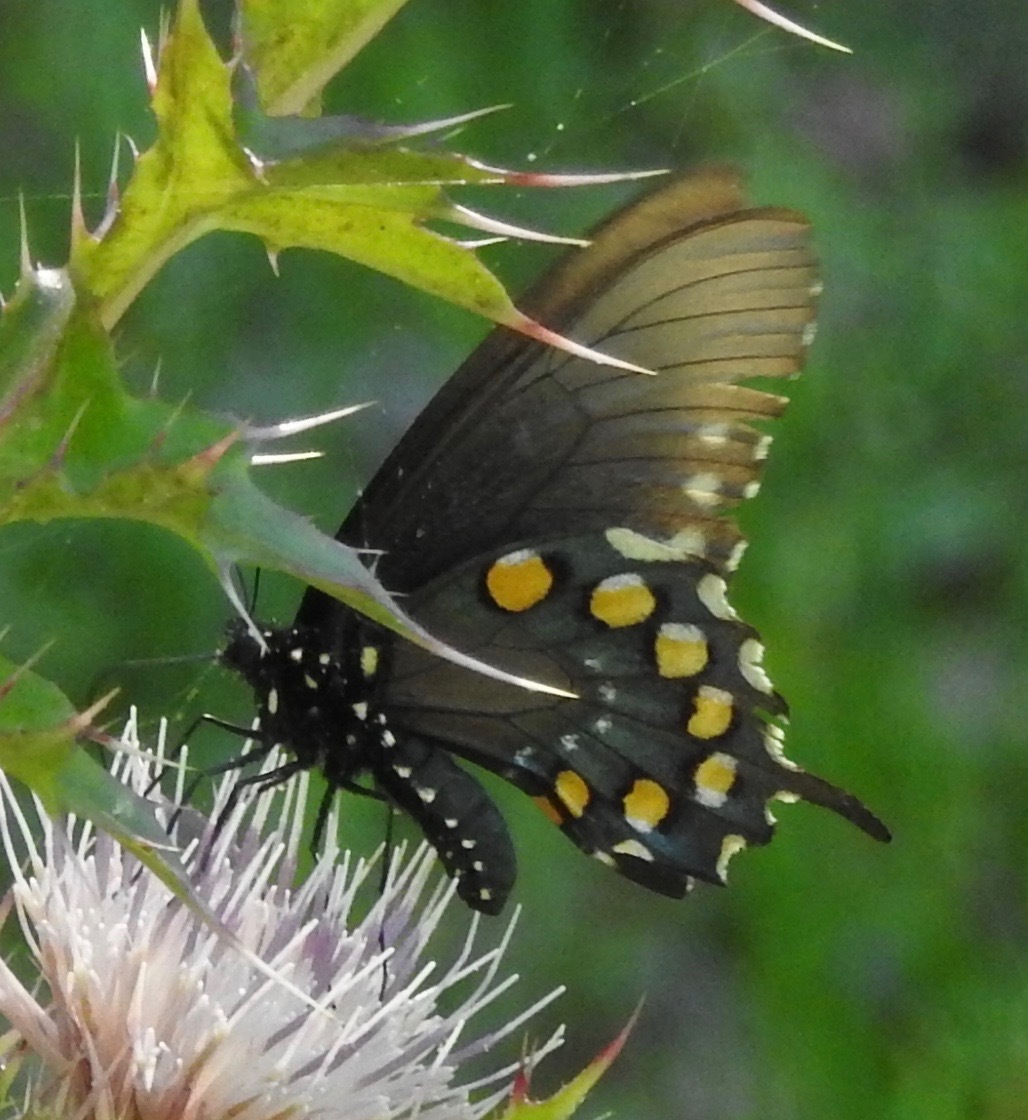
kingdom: Animalia
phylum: Arthropoda
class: Insecta
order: Lepidoptera
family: Papilionidae
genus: Battus
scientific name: Battus philenor
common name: Pipevine swallowtail
